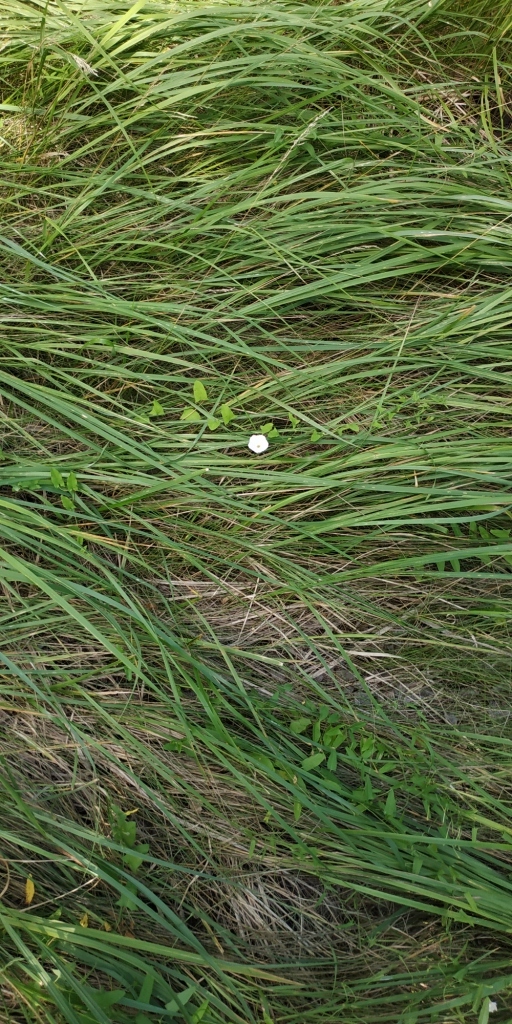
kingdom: Plantae
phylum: Tracheophyta
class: Magnoliopsida
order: Solanales
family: Convolvulaceae
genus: Convolvulus
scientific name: Convolvulus arvensis
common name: Field bindweed
